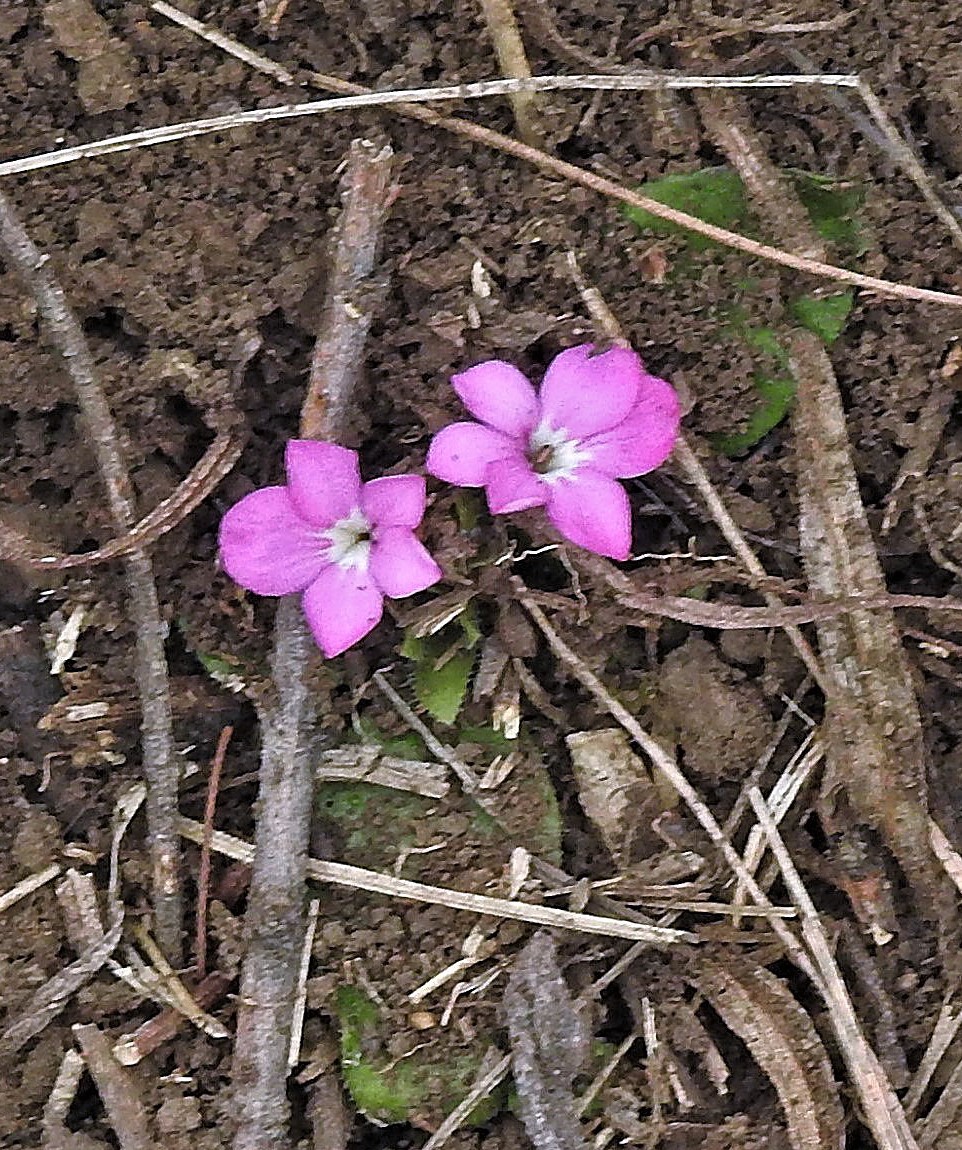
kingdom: Plantae
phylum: Tracheophyta
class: Magnoliopsida
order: Lamiales
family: Acanthaceae
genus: Stenandrium
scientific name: Stenandrium dulce
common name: Pinklet
